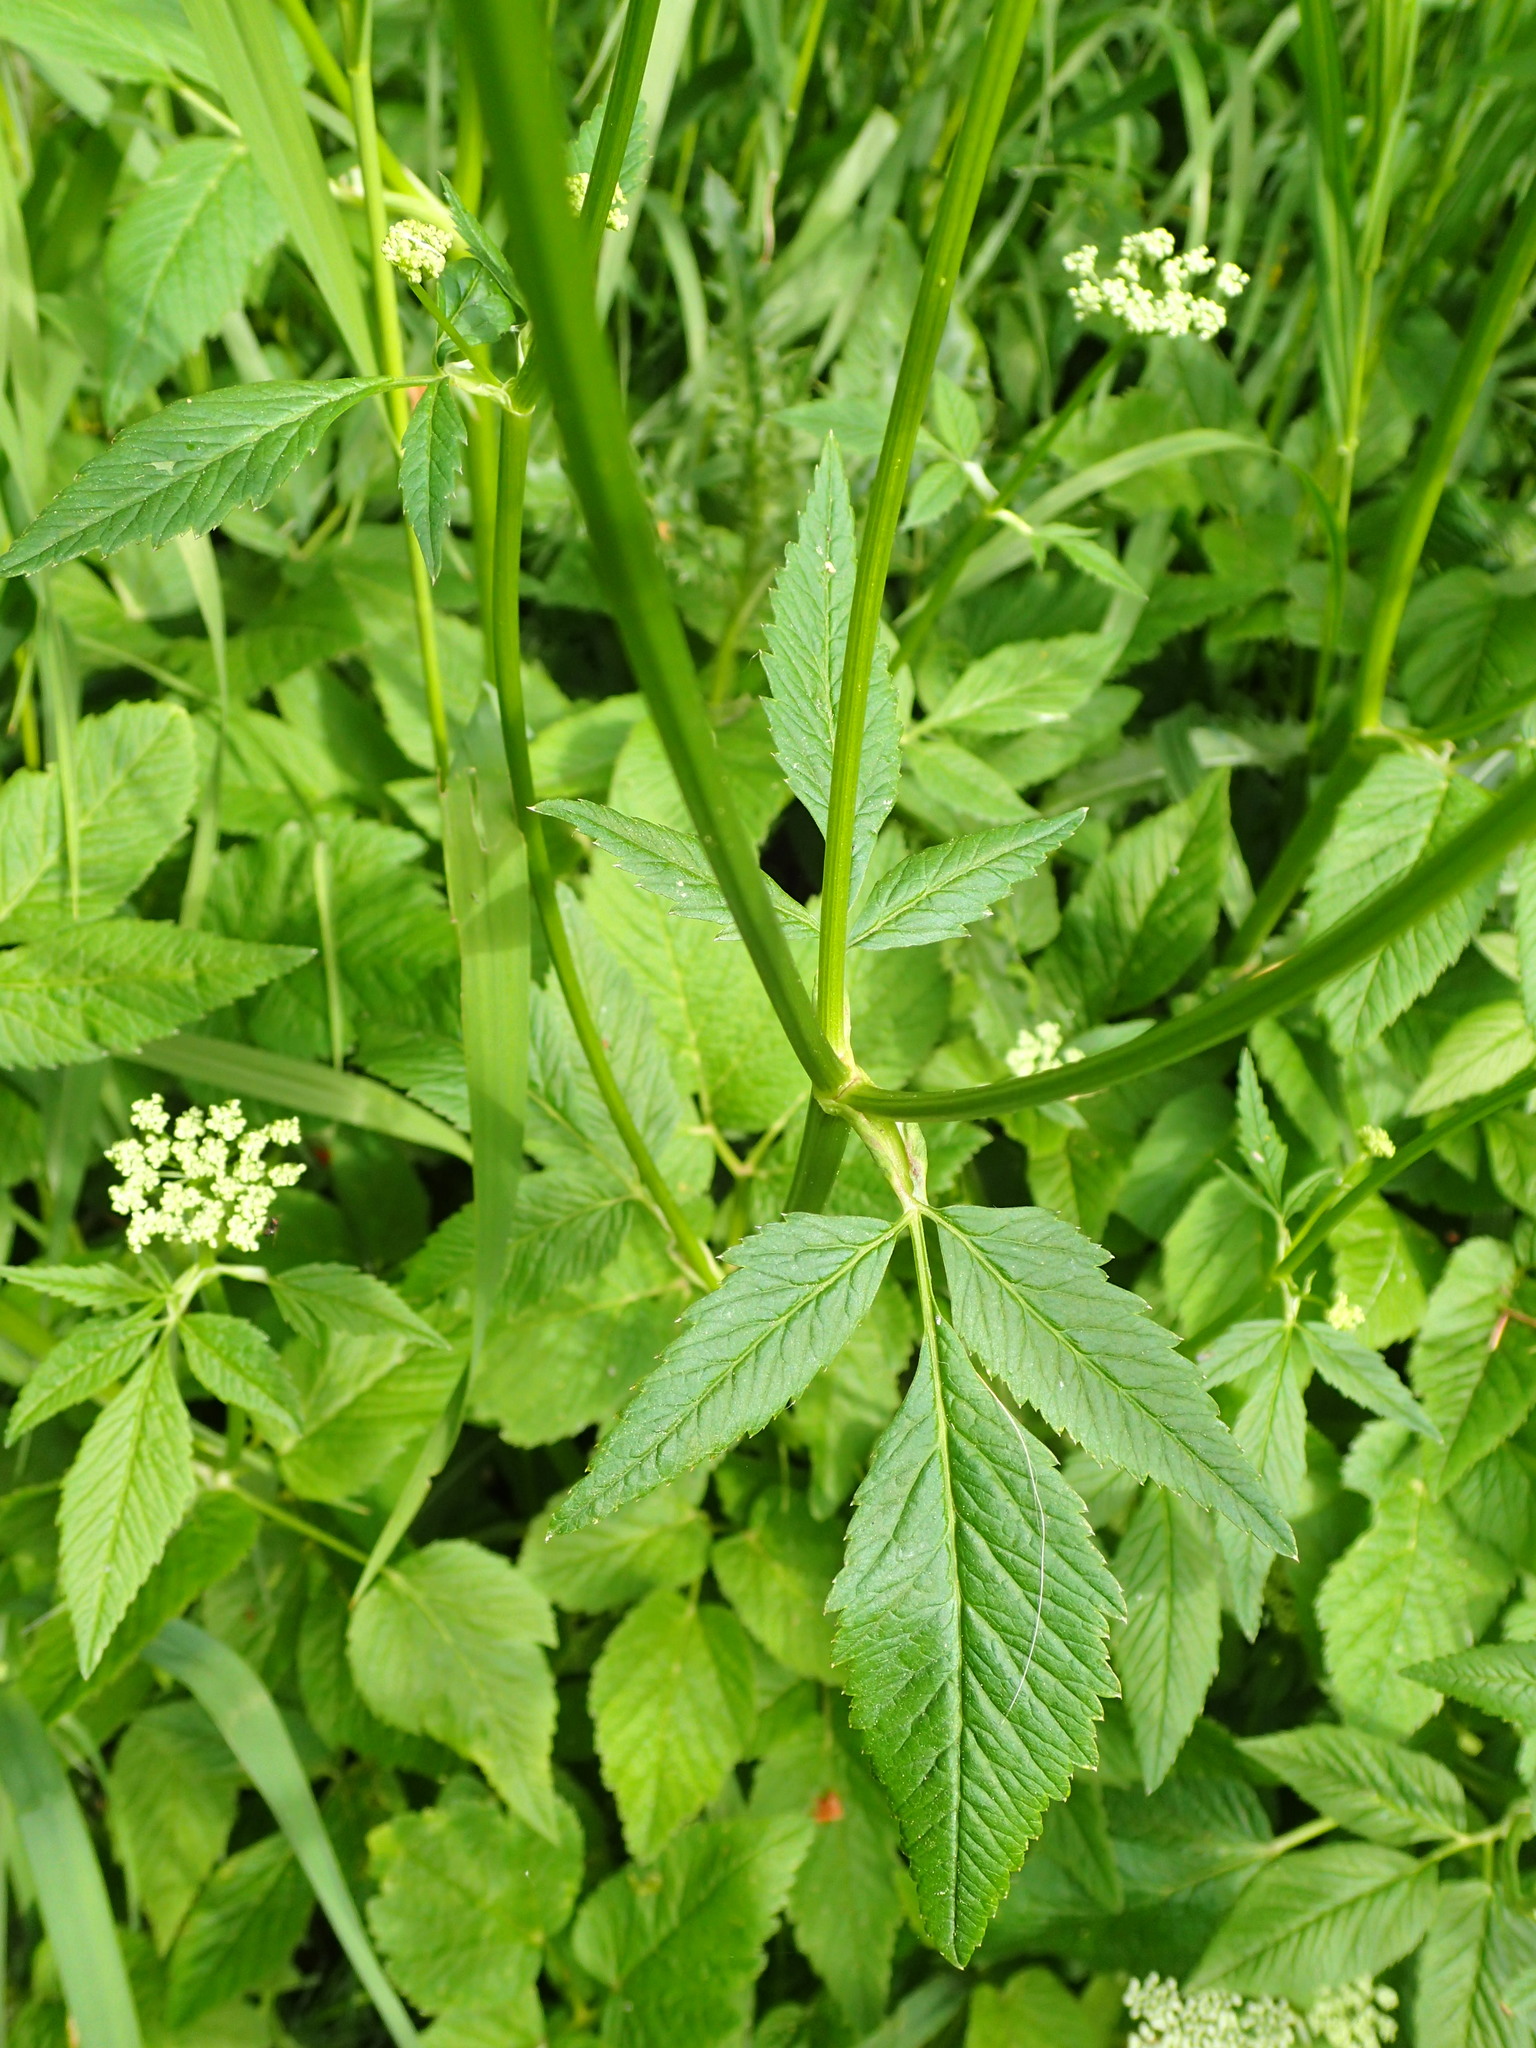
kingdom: Plantae
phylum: Tracheophyta
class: Magnoliopsida
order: Apiales
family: Apiaceae
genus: Aegopodium
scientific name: Aegopodium podagraria
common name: Ground-elder
